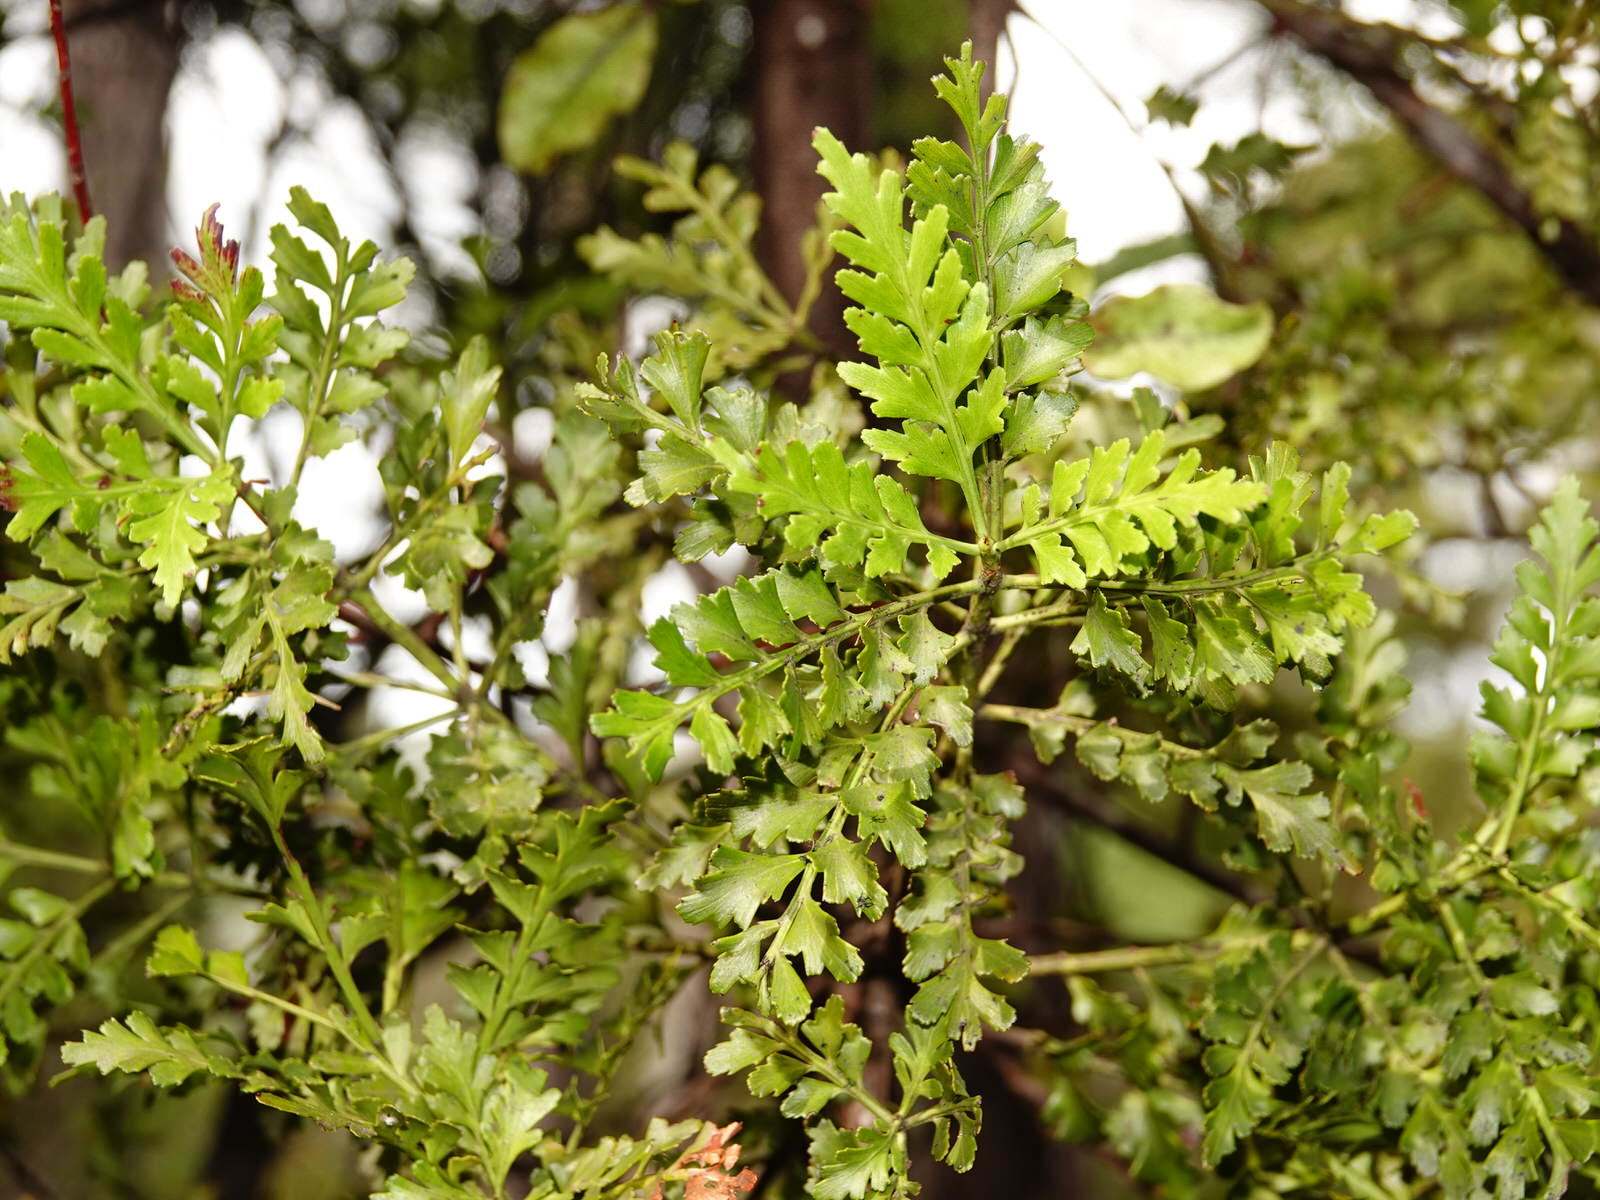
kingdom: Plantae
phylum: Tracheophyta
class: Pinopsida
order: Pinales
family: Phyllocladaceae
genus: Phyllocladus
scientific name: Phyllocladus trichomanoides
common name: Celery pine
